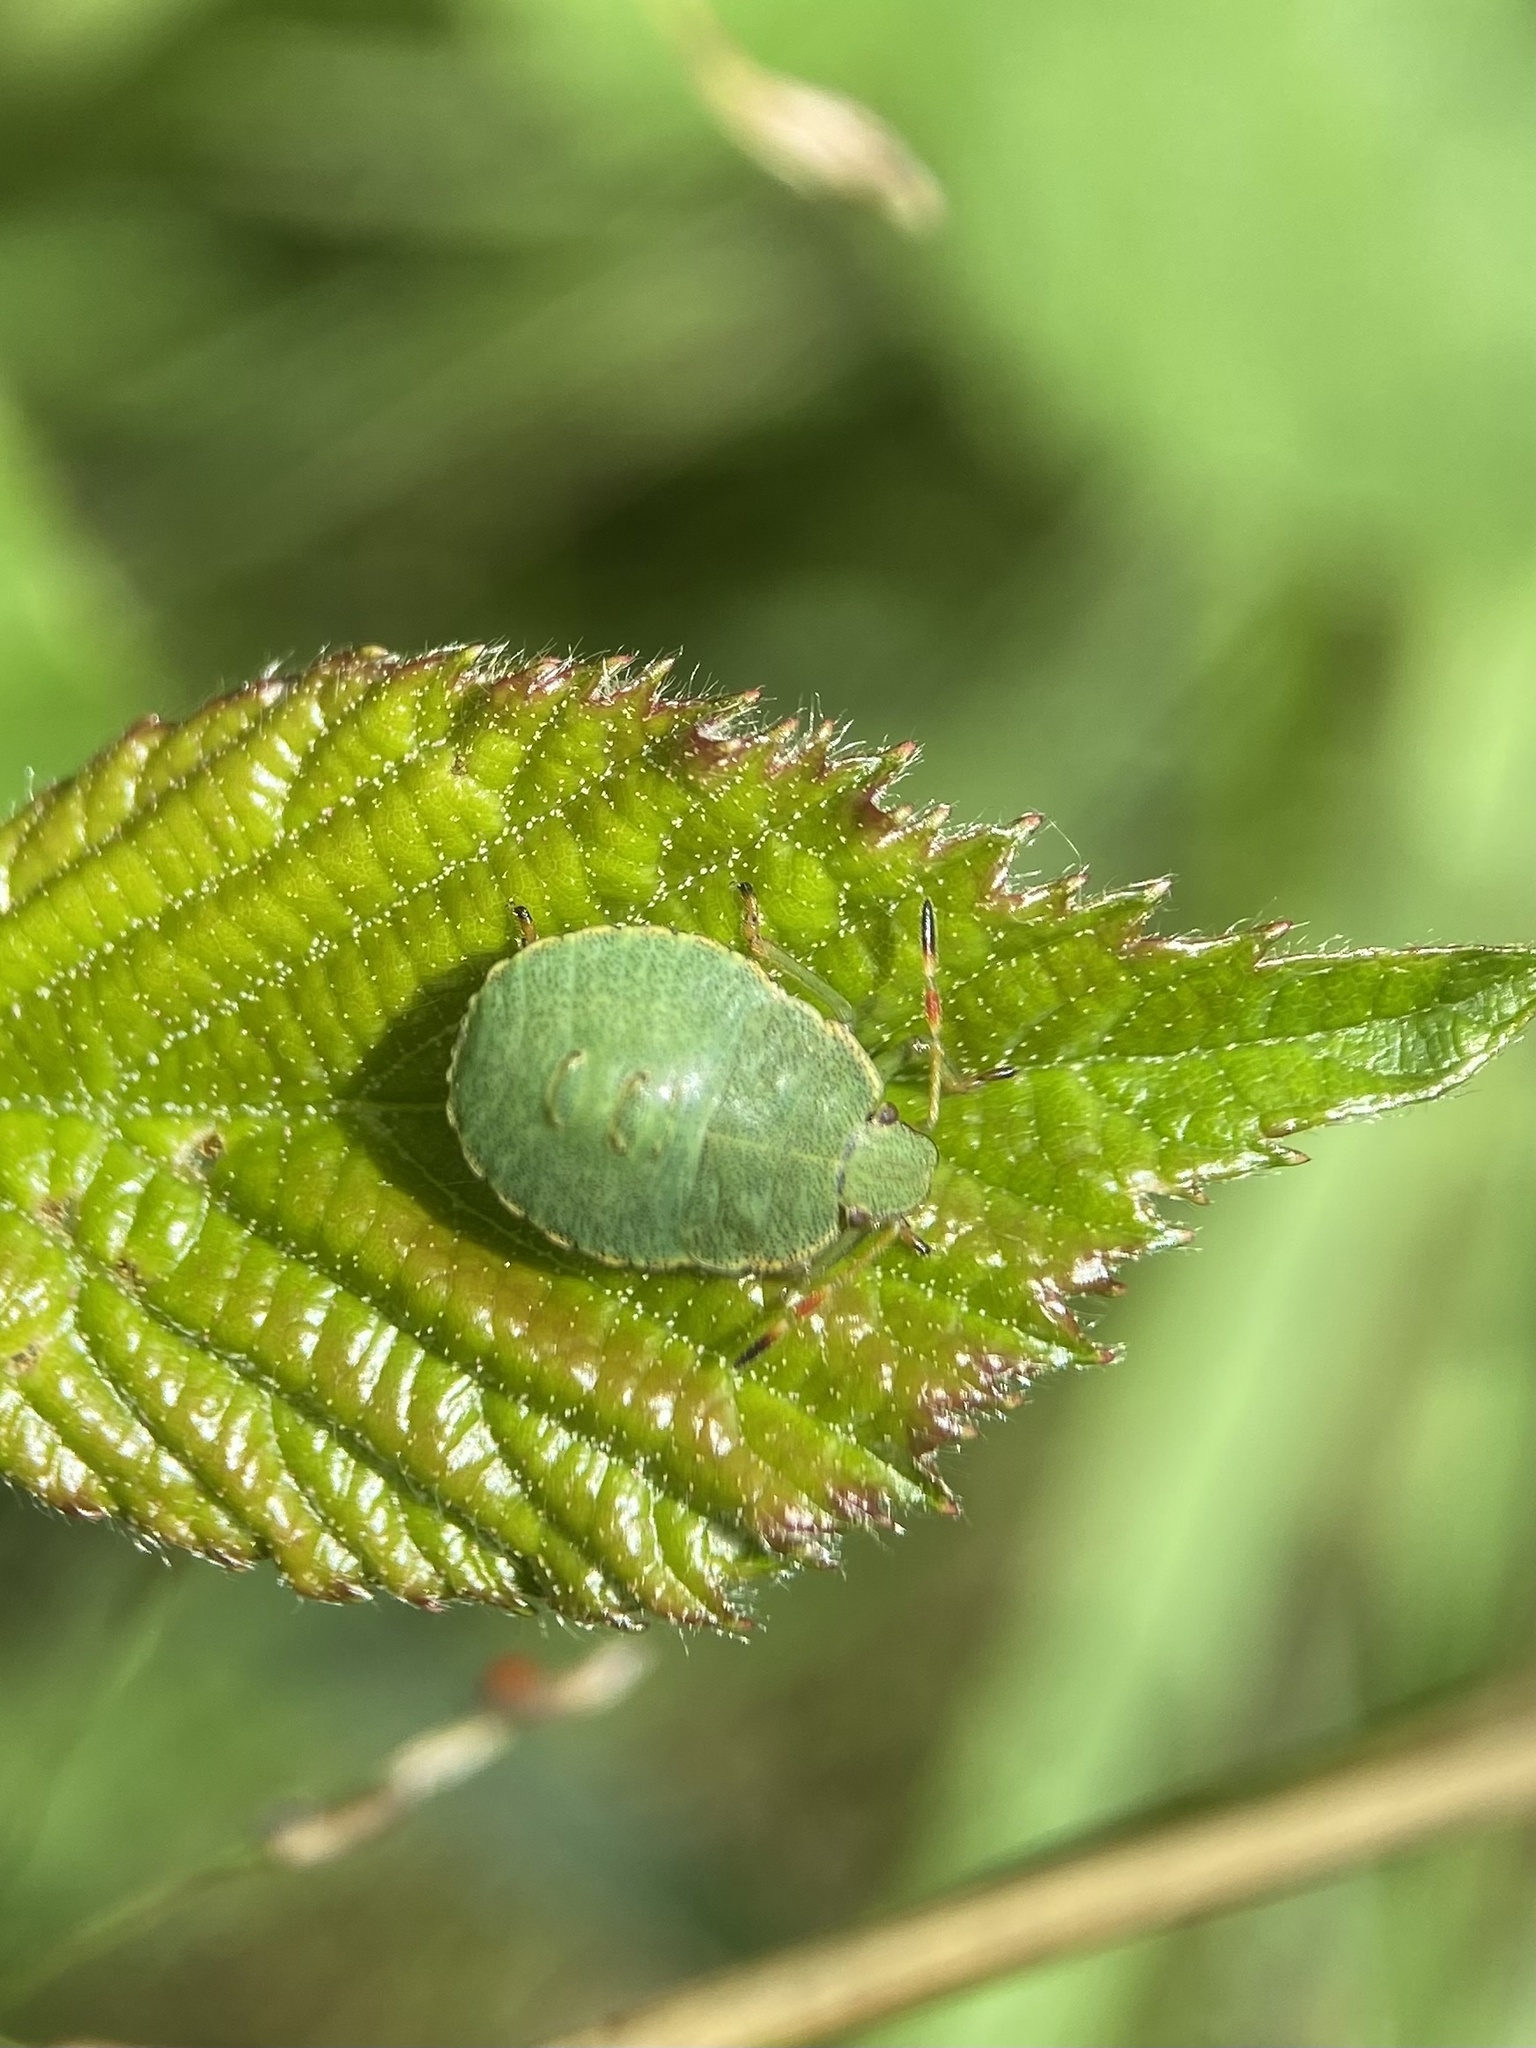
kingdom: Animalia
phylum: Arthropoda
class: Insecta
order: Hemiptera
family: Pentatomidae
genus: Palomena
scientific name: Palomena prasina
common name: Green shieldbug
